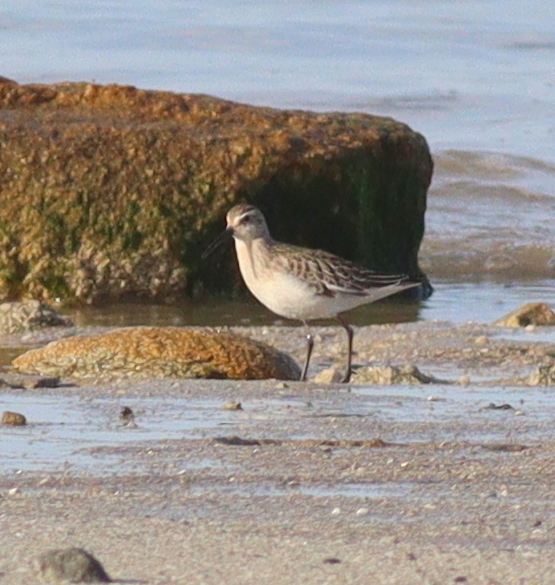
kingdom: Animalia
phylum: Chordata
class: Aves
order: Charadriiformes
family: Scolopacidae
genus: Calidris
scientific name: Calidris ferruginea
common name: Curlew sandpiper
